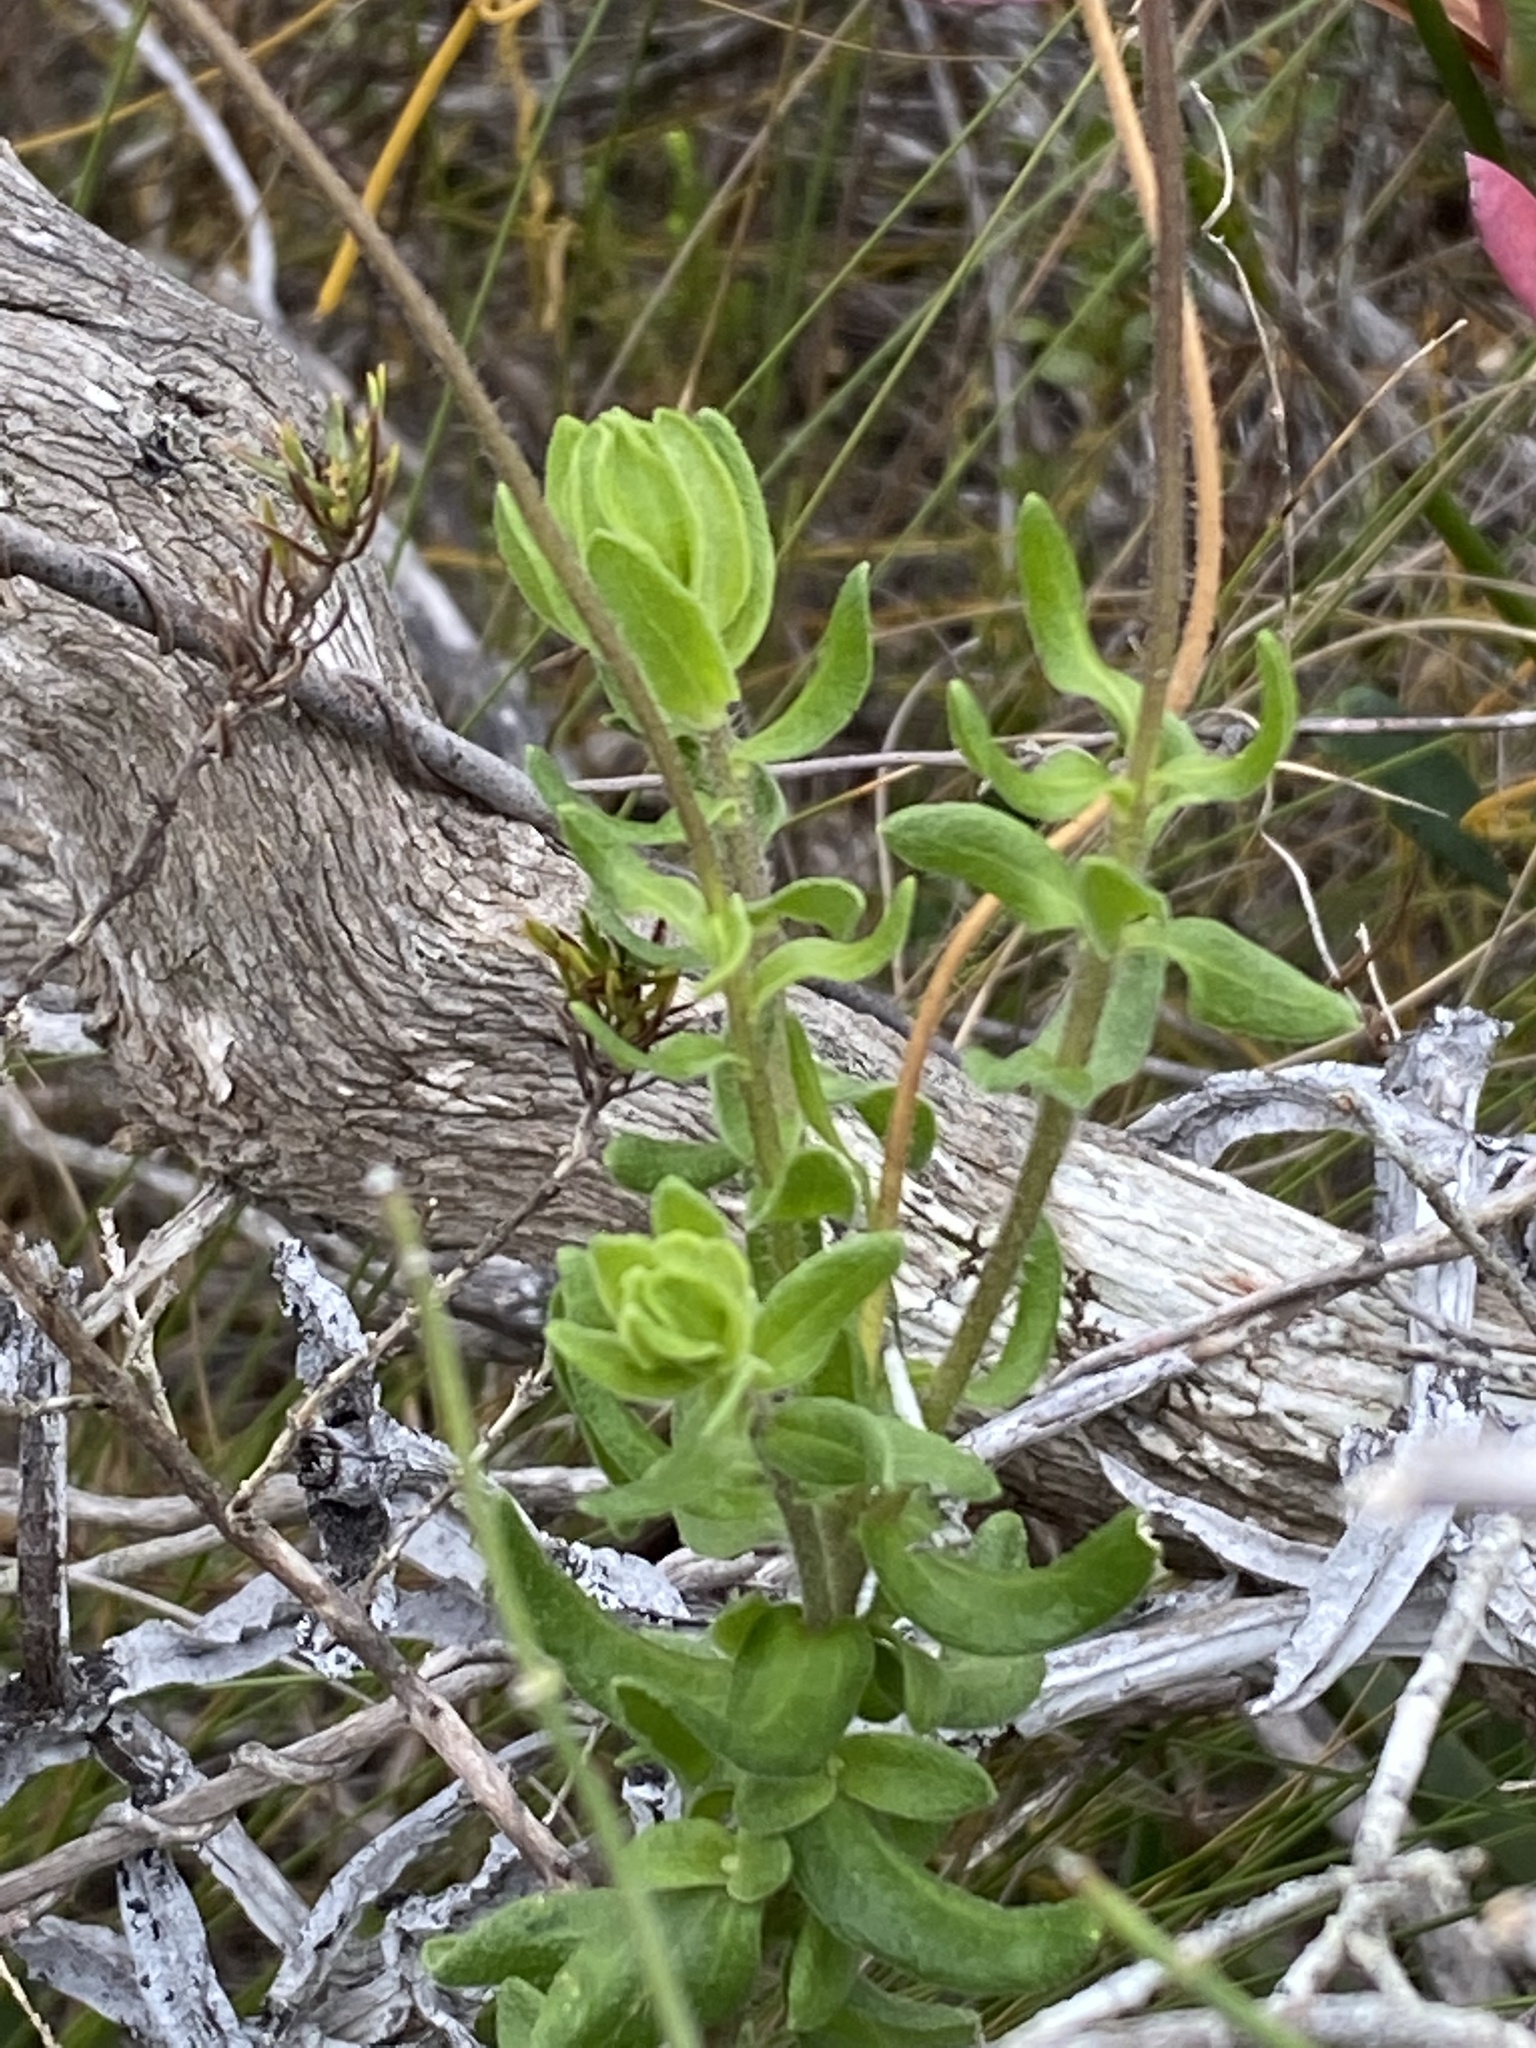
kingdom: Plantae
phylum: Tracheophyta
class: Magnoliopsida
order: Asterales
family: Asteraceae
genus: Felicia
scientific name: Felicia aethiopica
